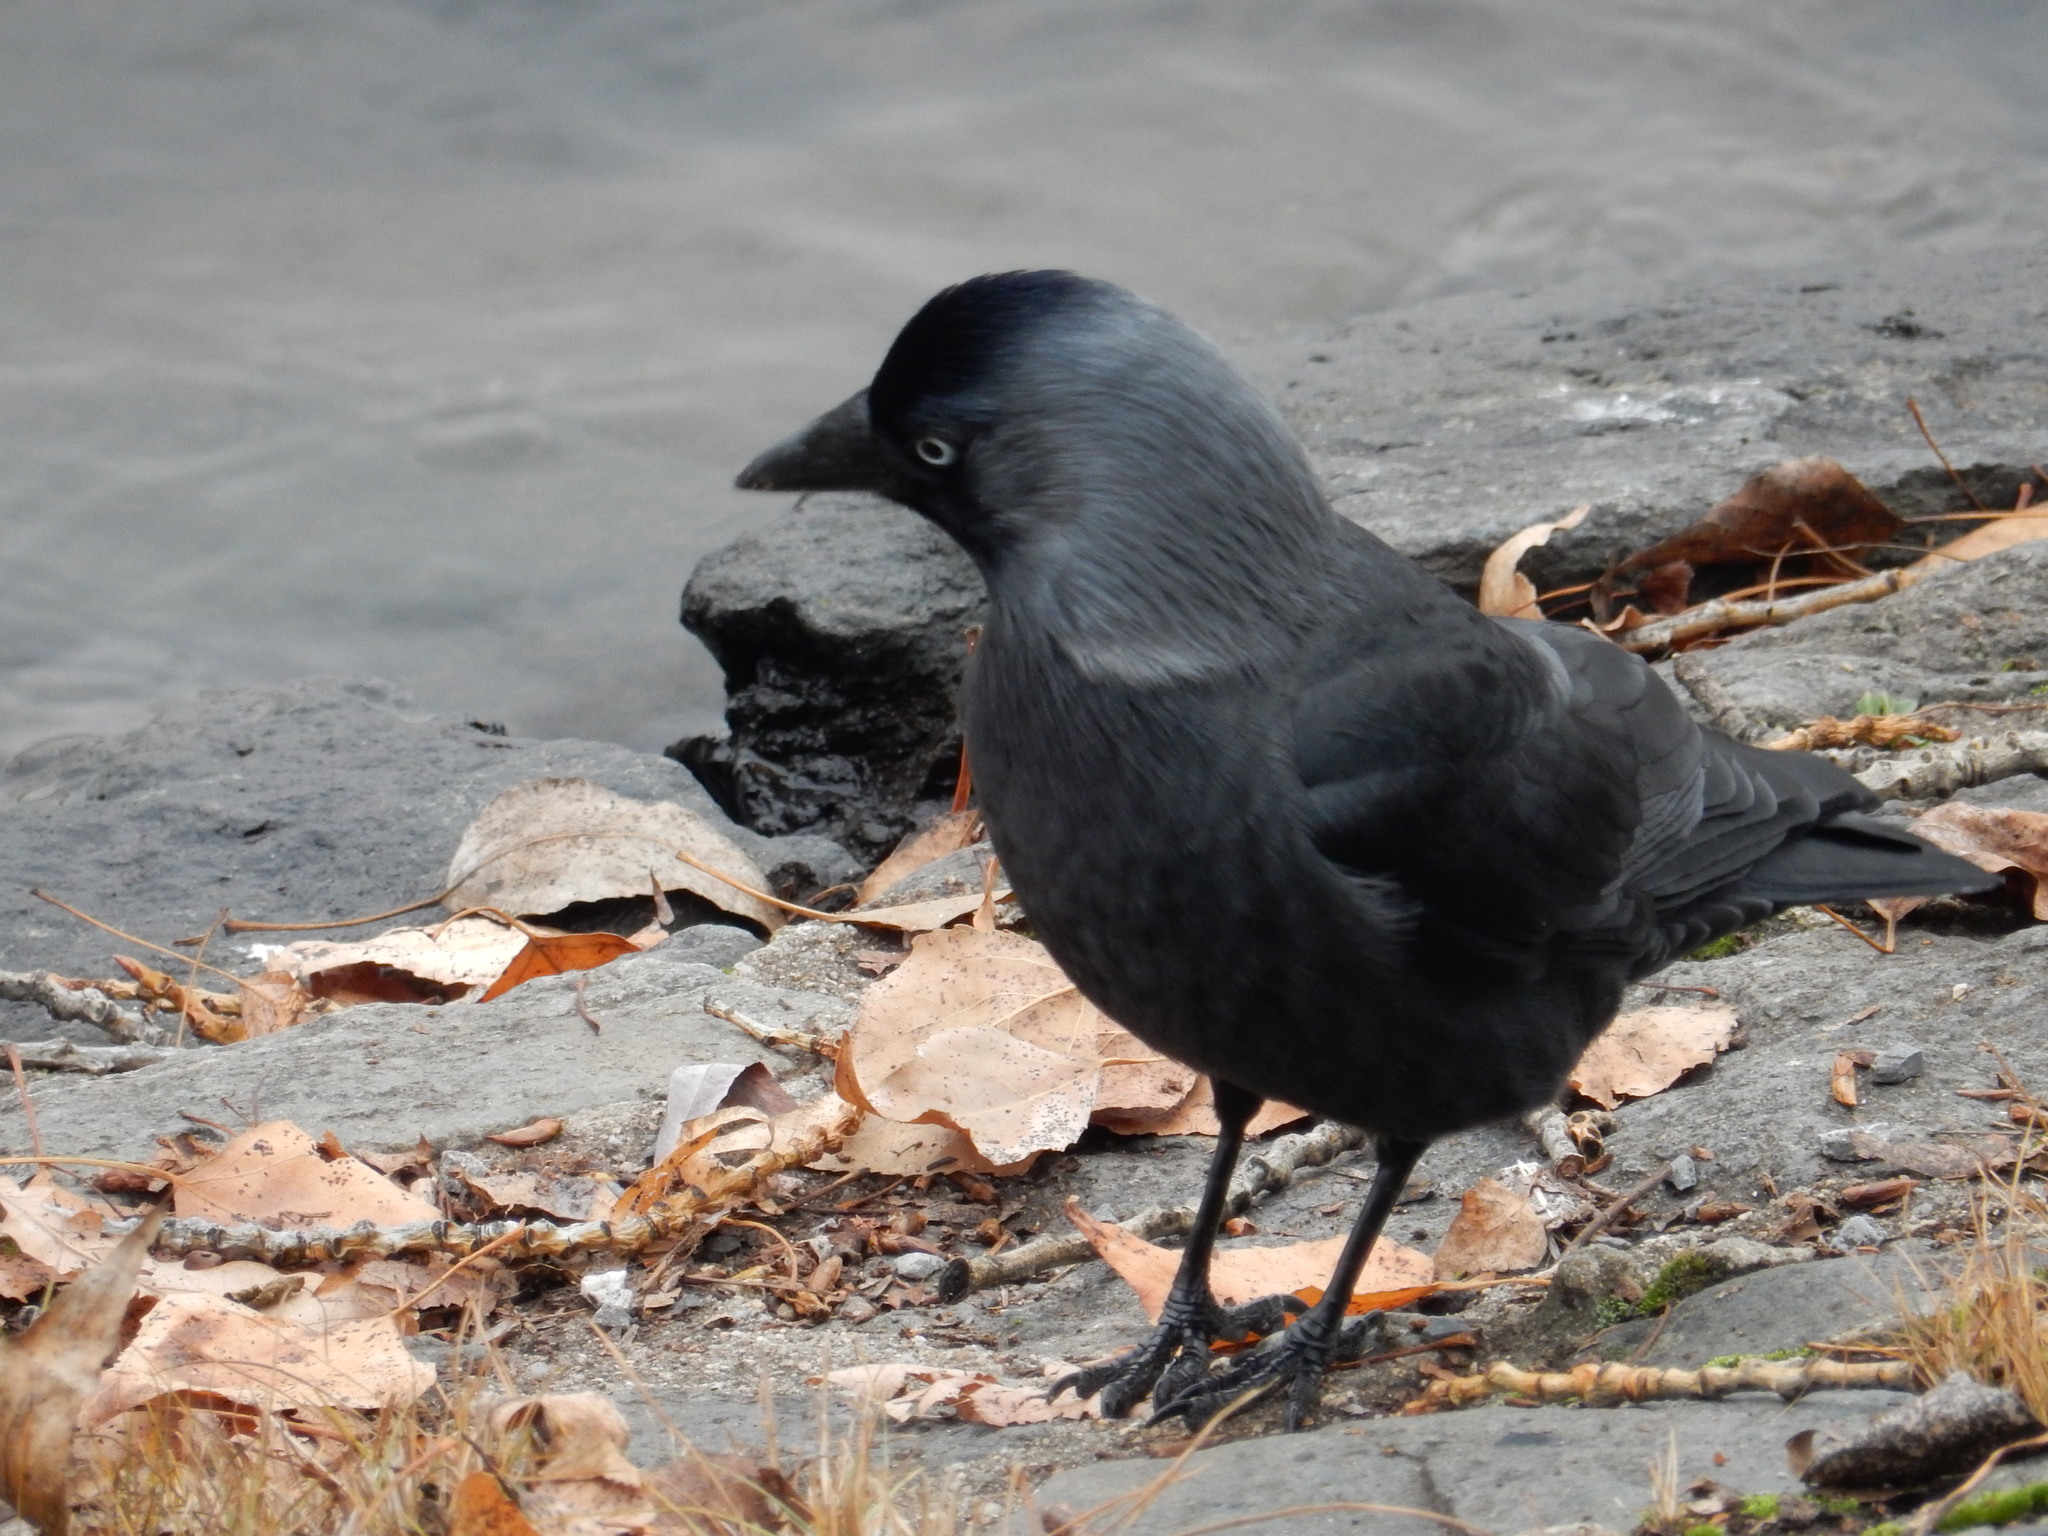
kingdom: Animalia
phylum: Chordata
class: Aves
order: Passeriformes
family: Corvidae
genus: Coloeus
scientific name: Coloeus monedula
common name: Western jackdaw
